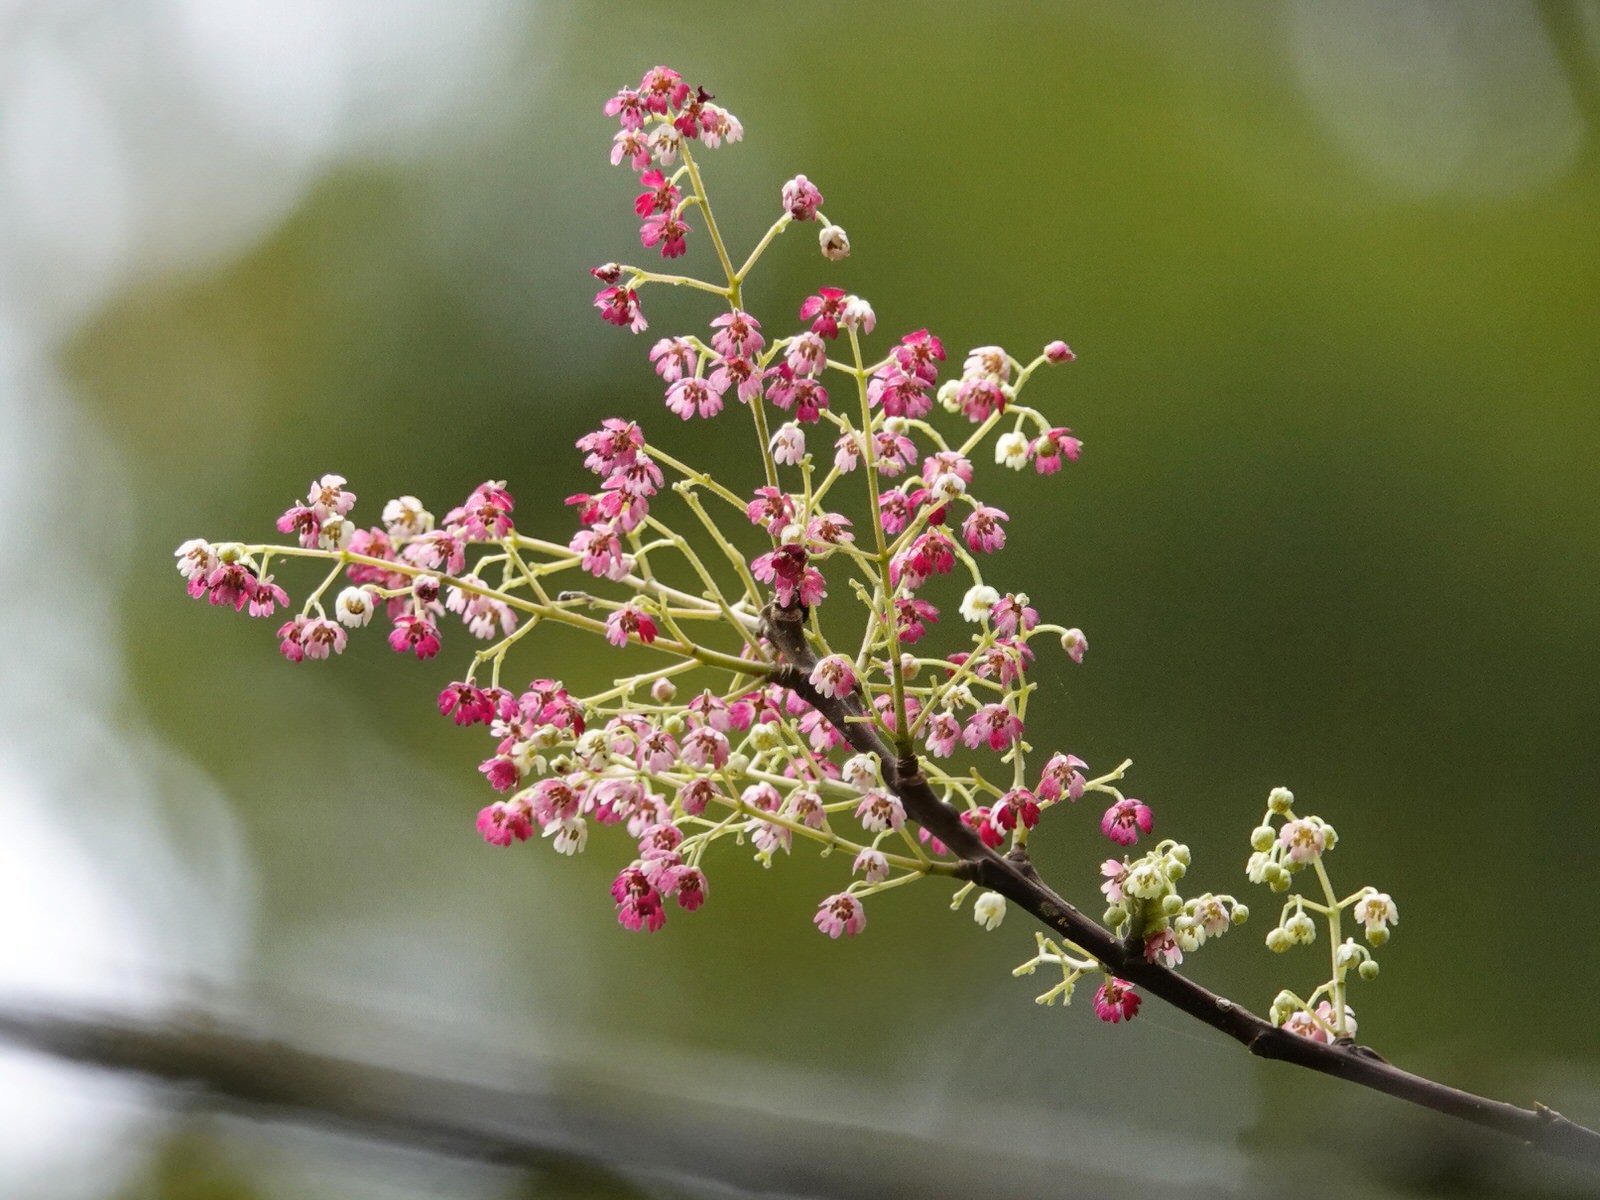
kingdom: Plantae
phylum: Tracheophyta
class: Magnoliopsida
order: Oxalidales
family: Elaeocarpaceae
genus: Aristotelia
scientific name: Aristotelia serrata
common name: New zealand wineberry
